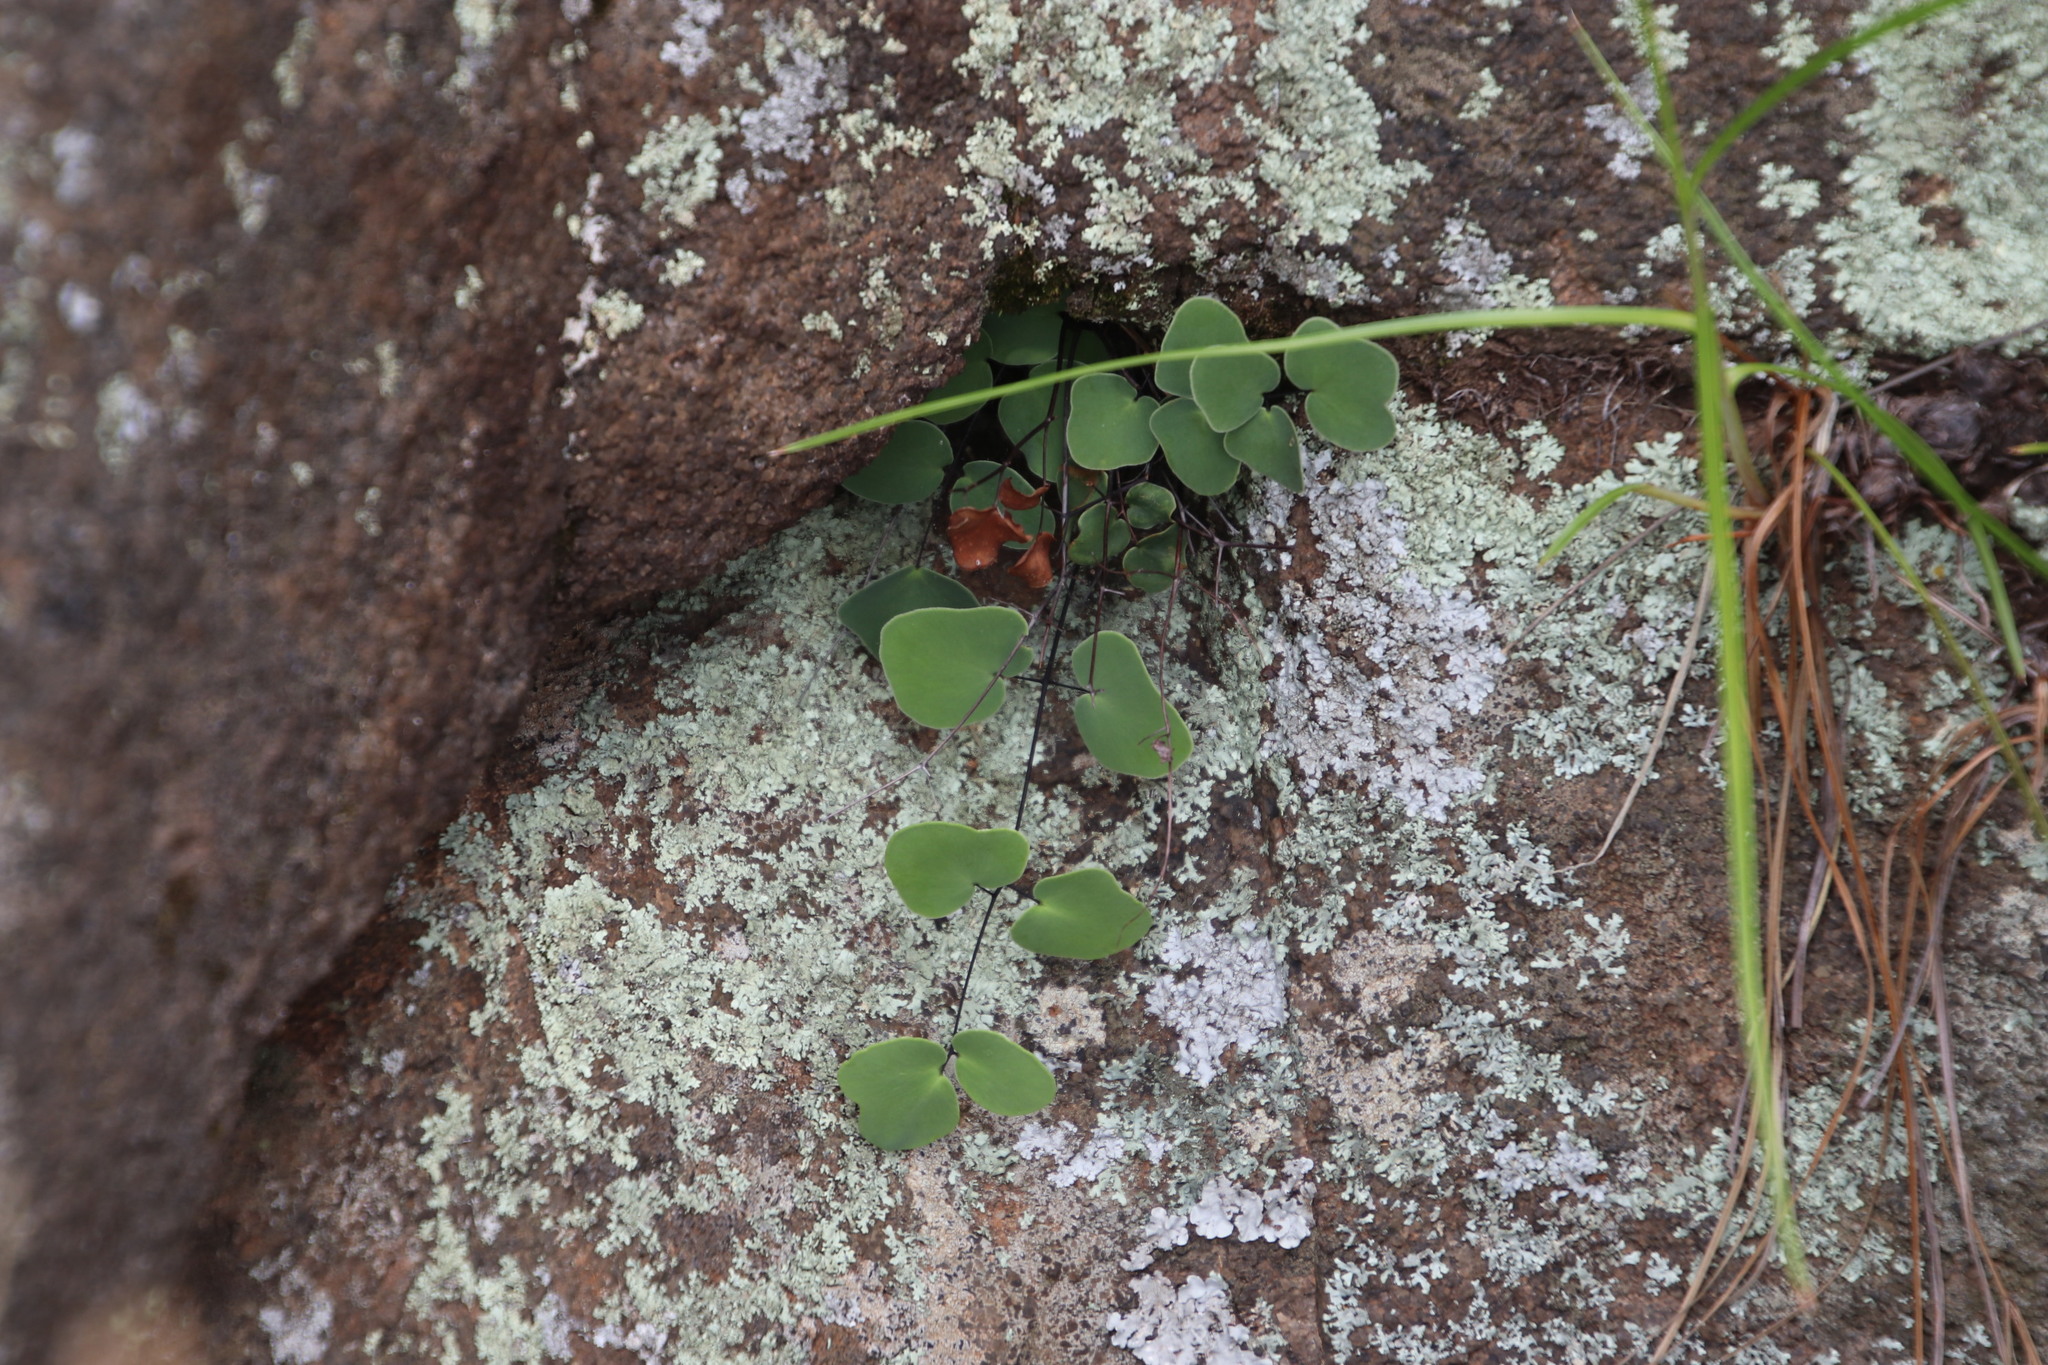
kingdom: Plantae
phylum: Tracheophyta
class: Polypodiopsida
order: Polypodiales
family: Pteridaceae
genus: Pellaea
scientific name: Pellaea calomelanos
